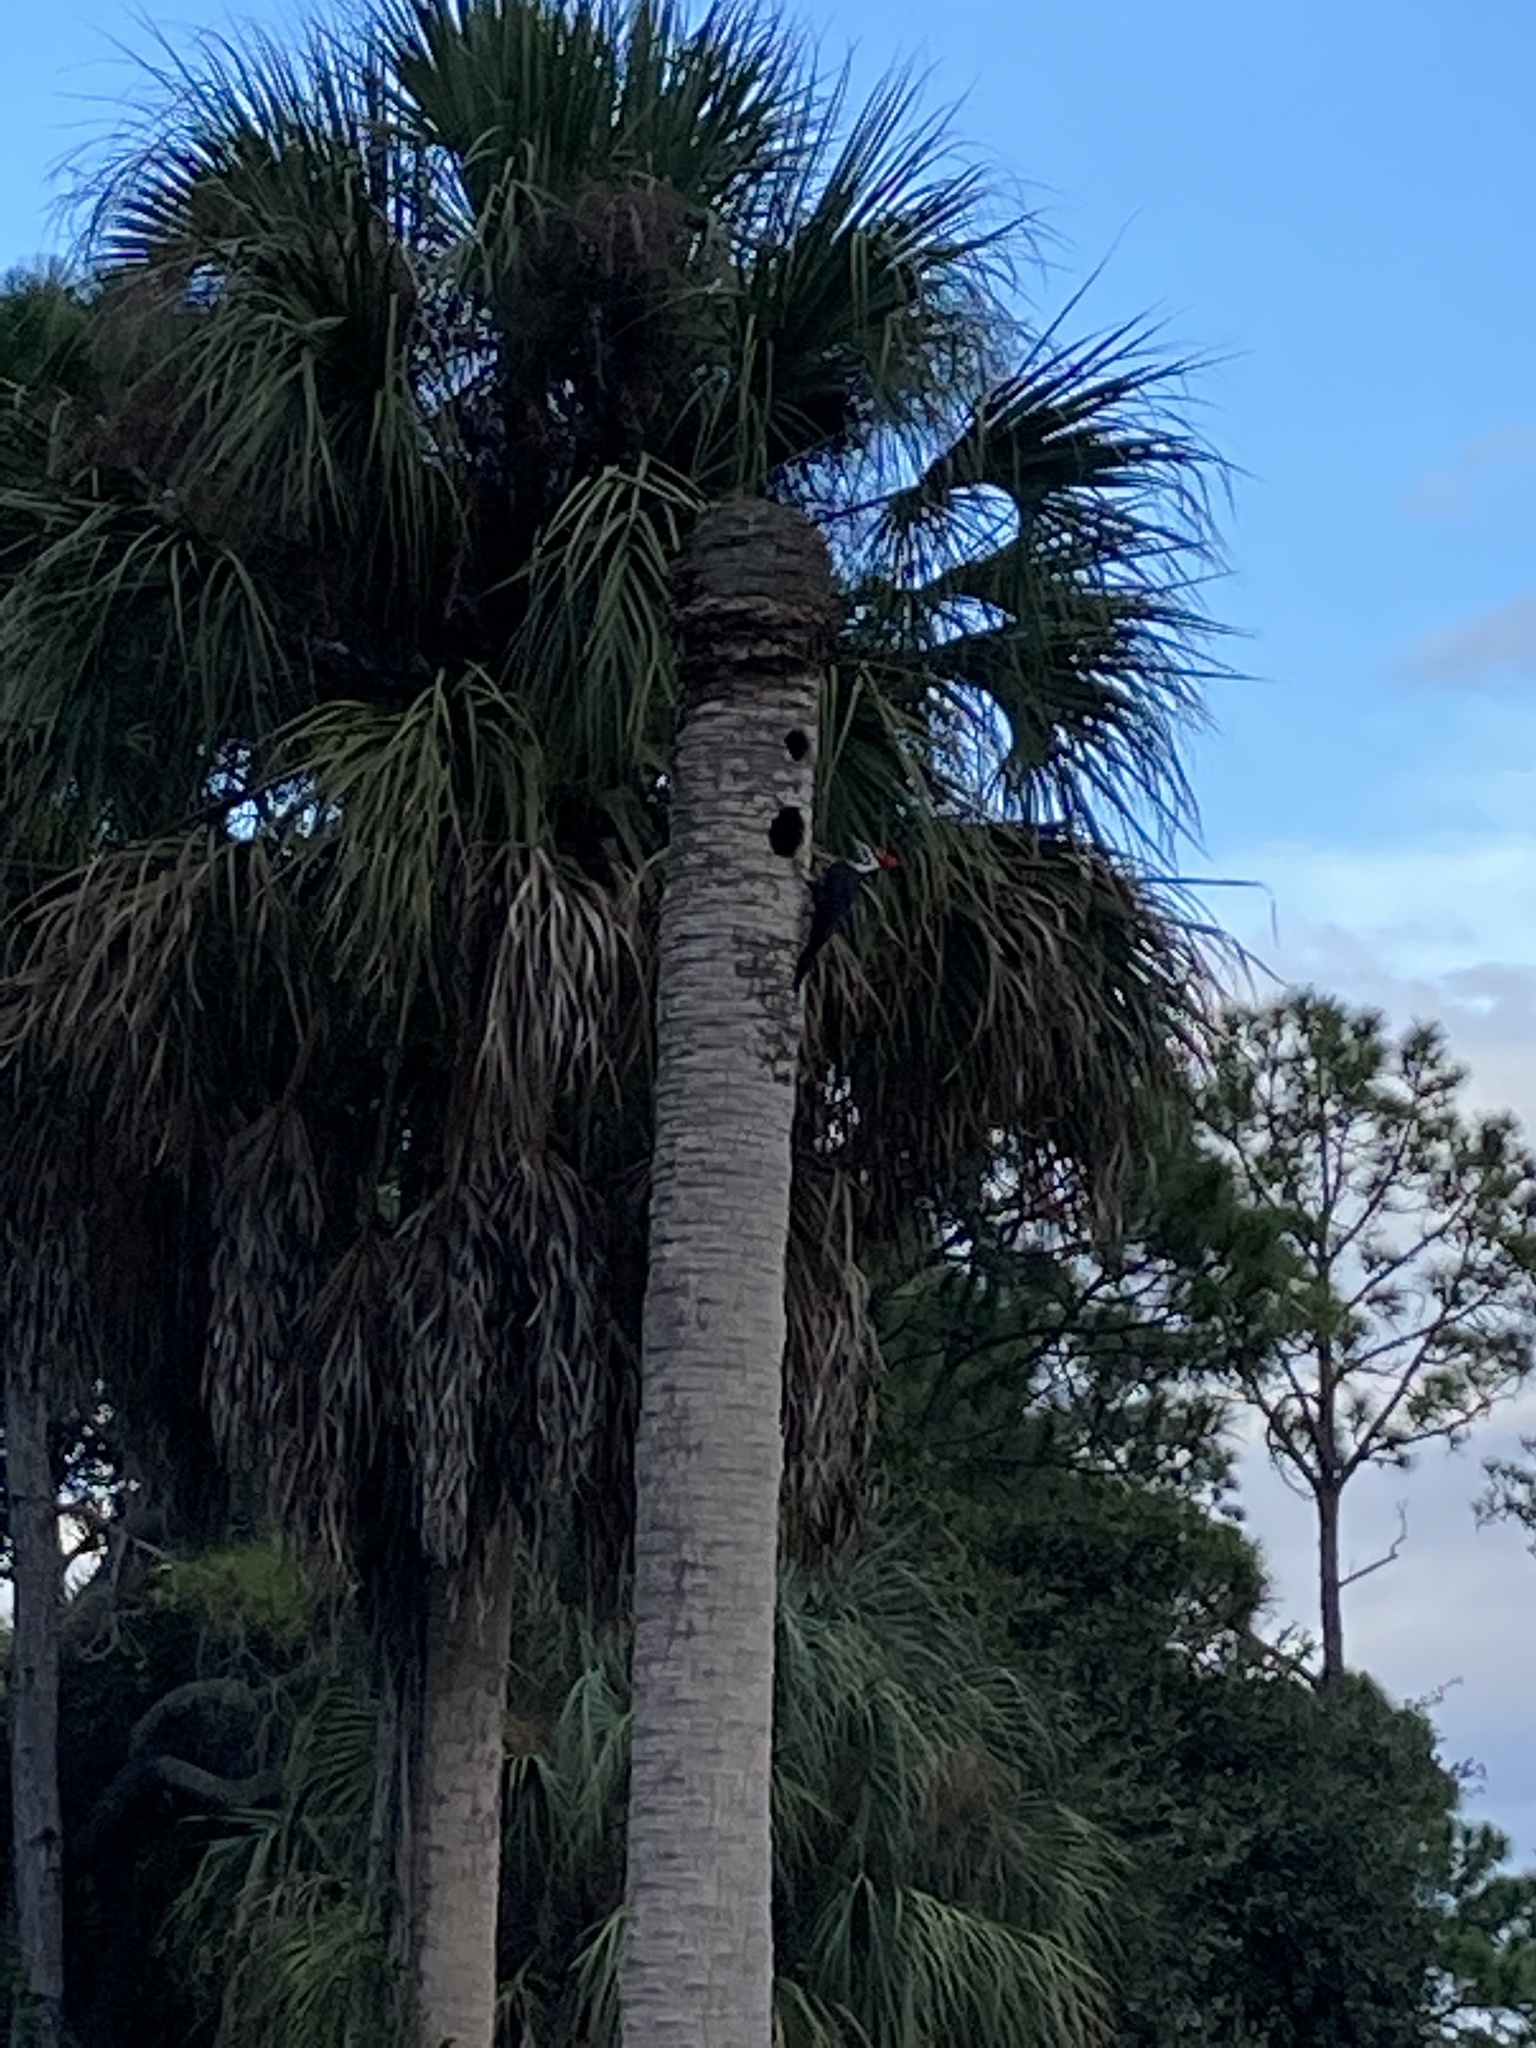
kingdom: Animalia
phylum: Chordata
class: Aves
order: Piciformes
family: Picidae
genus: Dryocopus
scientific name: Dryocopus pileatus
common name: Pileated woodpecker
